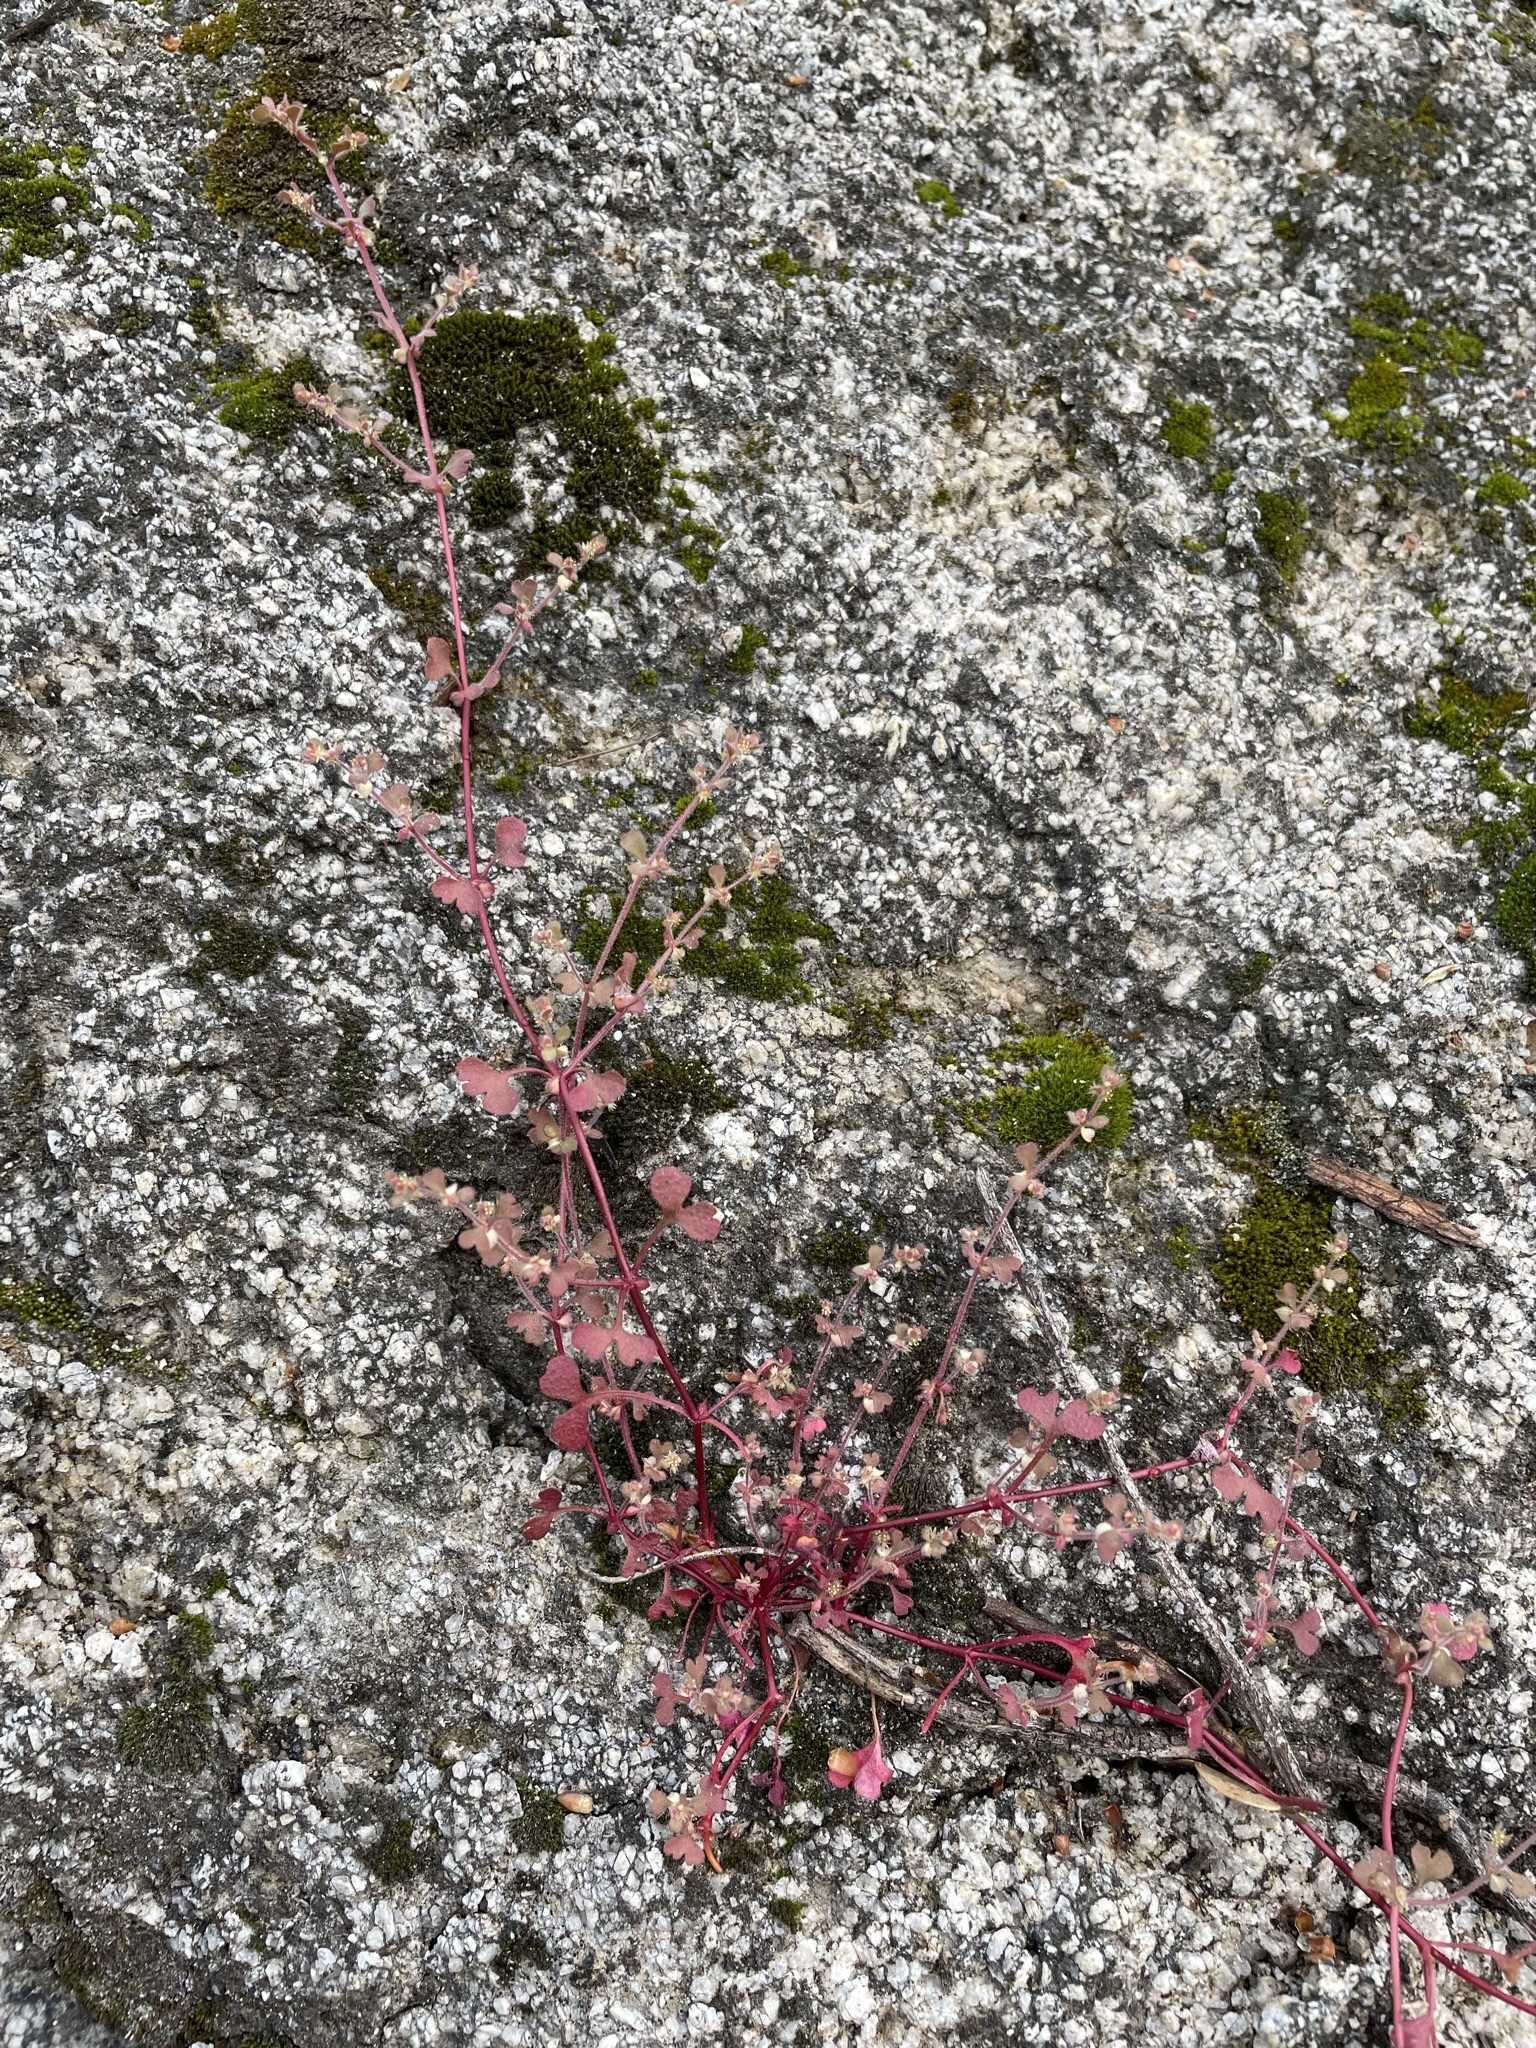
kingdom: Plantae
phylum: Tracheophyta
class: Magnoliopsida
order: Caryophyllales
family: Polygonaceae
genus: Pterostegia
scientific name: Pterostegia drymarioides
